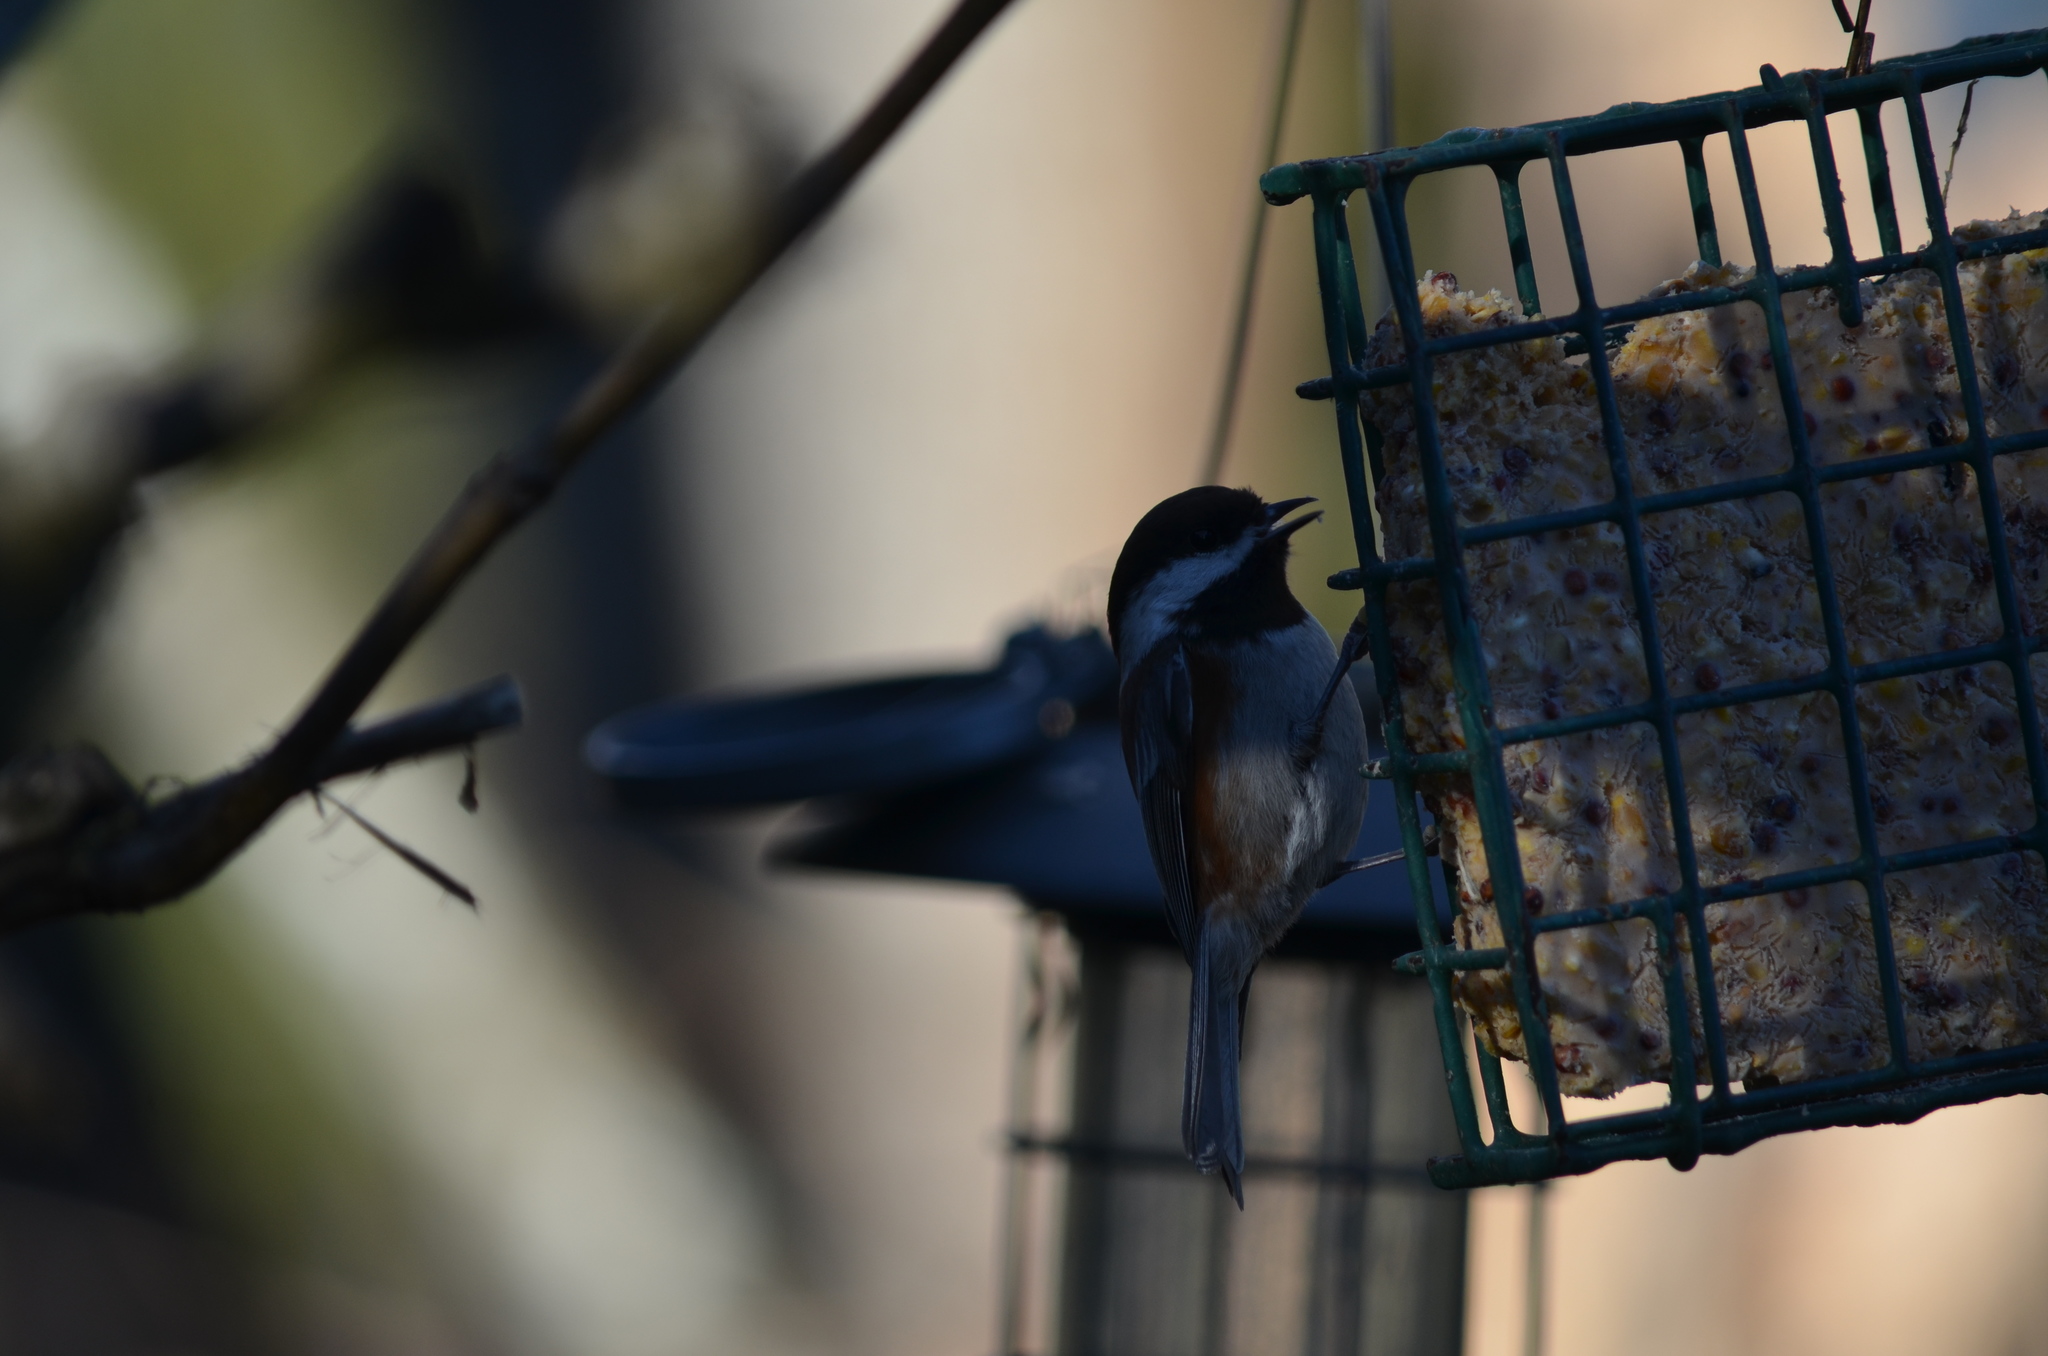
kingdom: Animalia
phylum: Chordata
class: Aves
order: Passeriformes
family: Paridae
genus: Poecile
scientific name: Poecile rufescens
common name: Chestnut-backed chickadee
